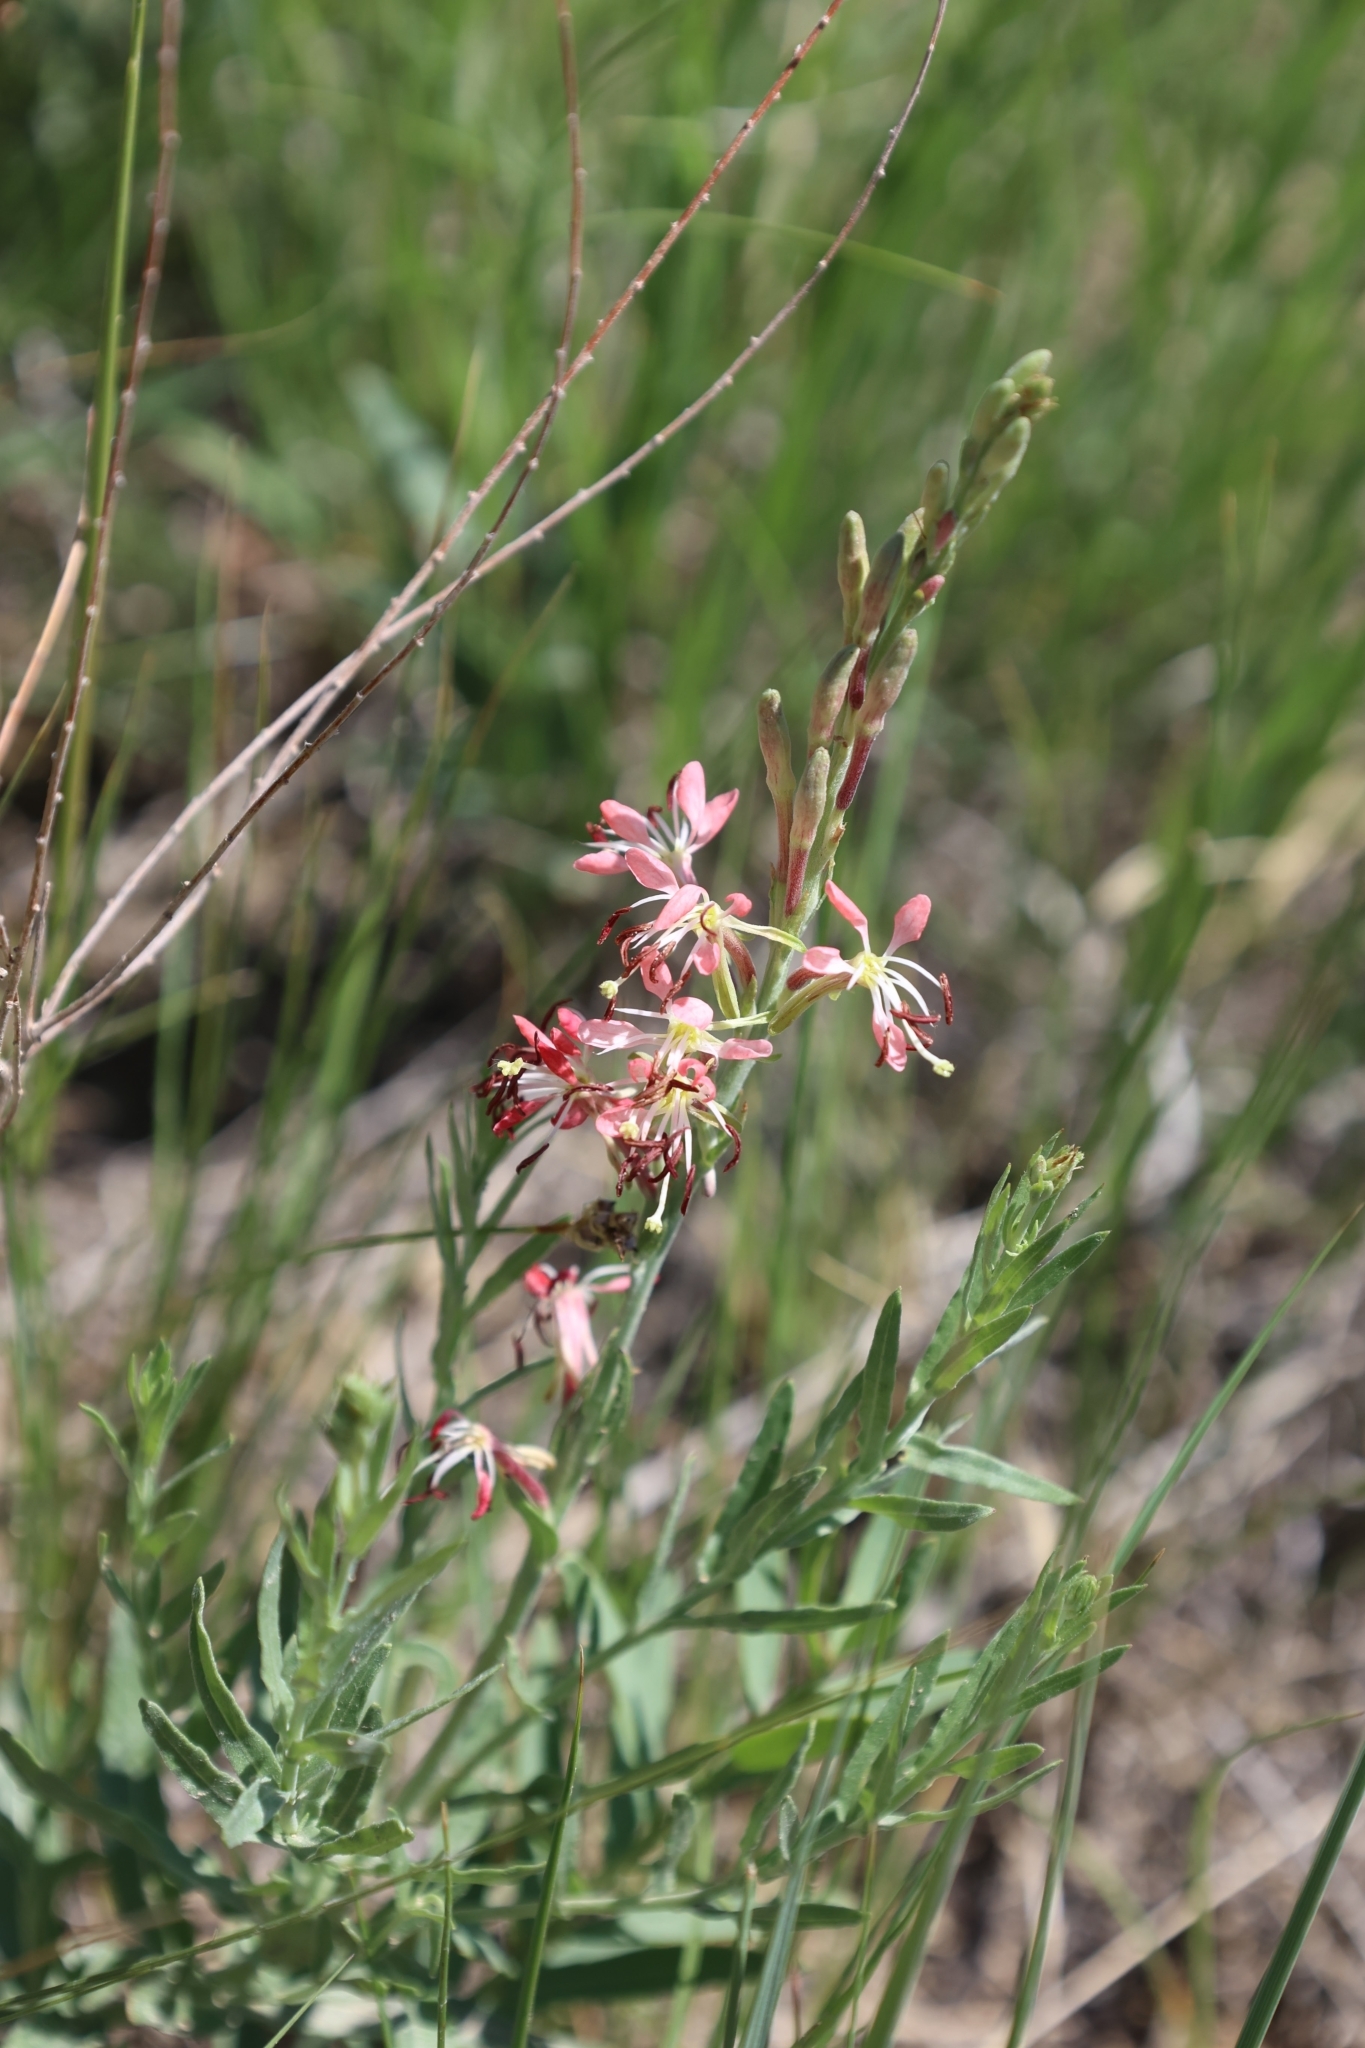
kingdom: Plantae
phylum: Tracheophyta
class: Magnoliopsida
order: Myrtales
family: Onagraceae
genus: Oenothera
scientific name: Oenothera suffrutescens
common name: Scarlet beeblossom
